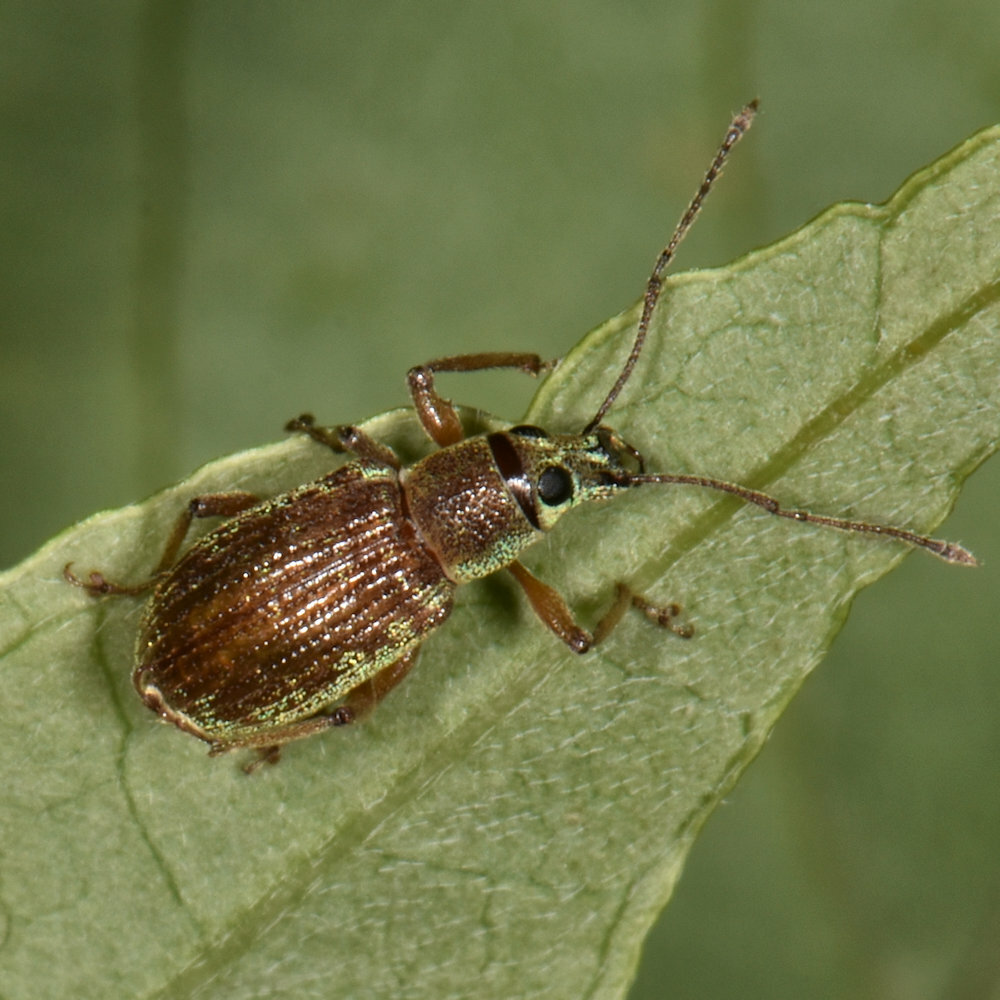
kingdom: Animalia
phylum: Arthropoda
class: Insecta
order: Coleoptera
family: Curculionidae
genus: Cyrtepistomus
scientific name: Cyrtepistomus castaneus
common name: Weevil
